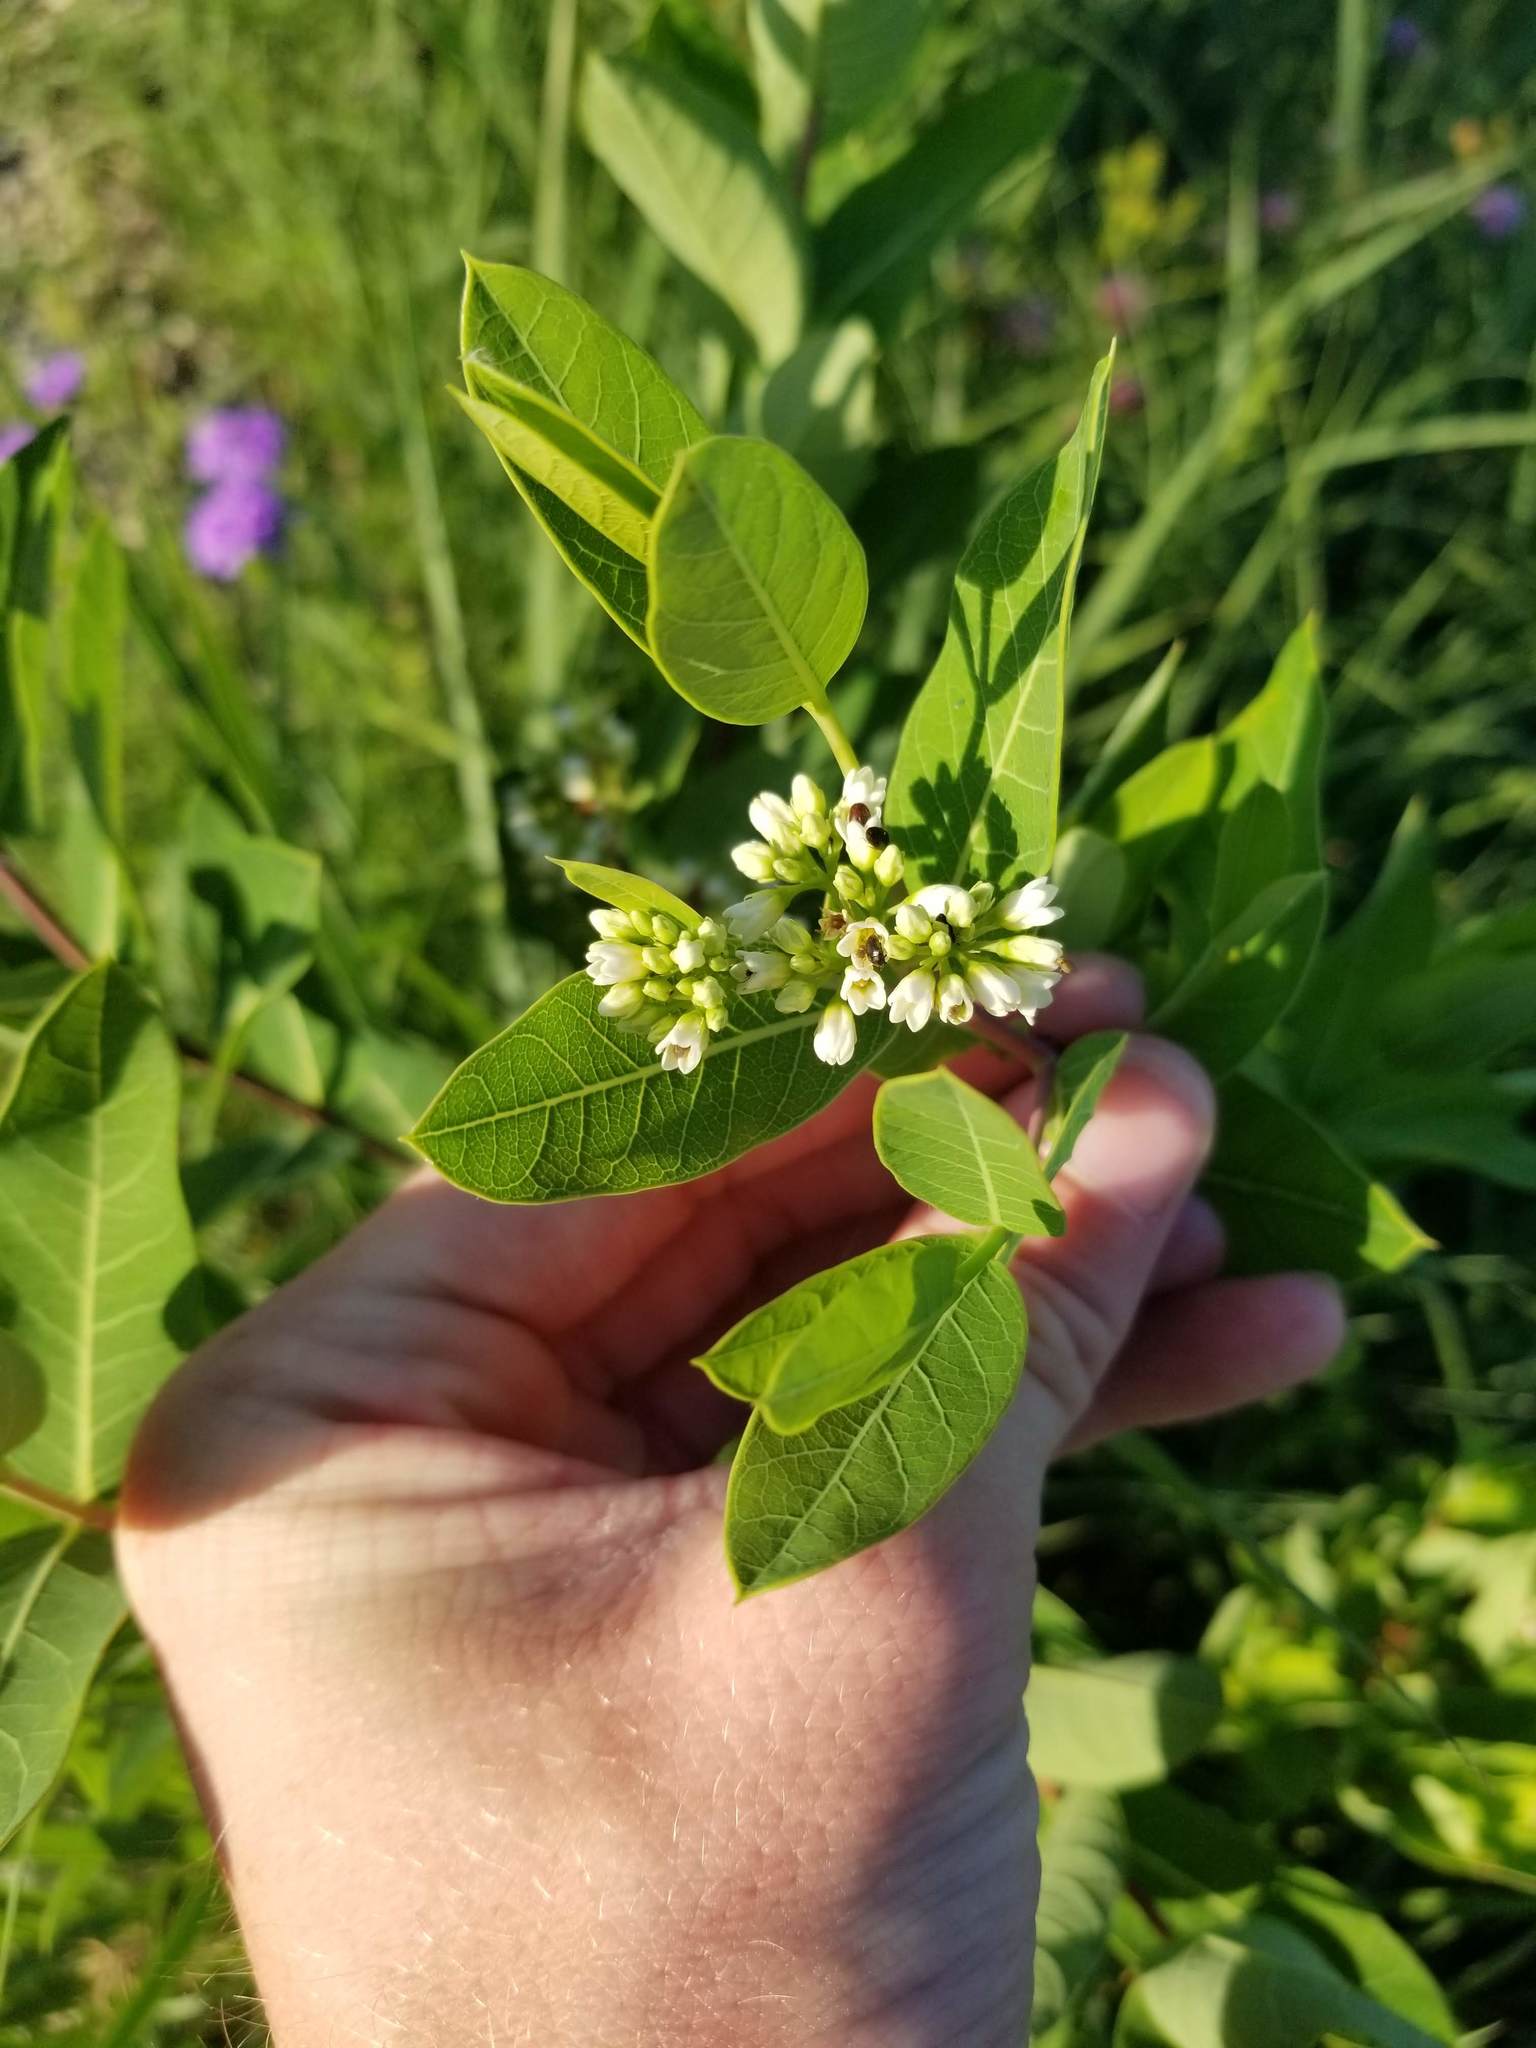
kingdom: Plantae
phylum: Tracheophyta
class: Magnoliopsida
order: Gentianales
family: Apocynaceae
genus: Apocynum
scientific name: Apocynum cannabinum
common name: Hemp dogbane
